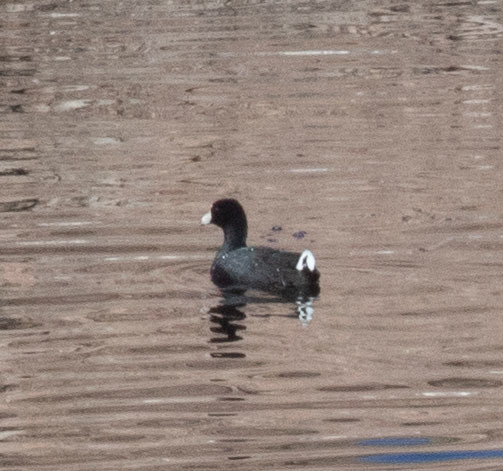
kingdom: Animalia
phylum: Chordata
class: Aves
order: Gruiformes
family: Rallidae
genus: Fulica
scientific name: Fulica americana
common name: American coot
